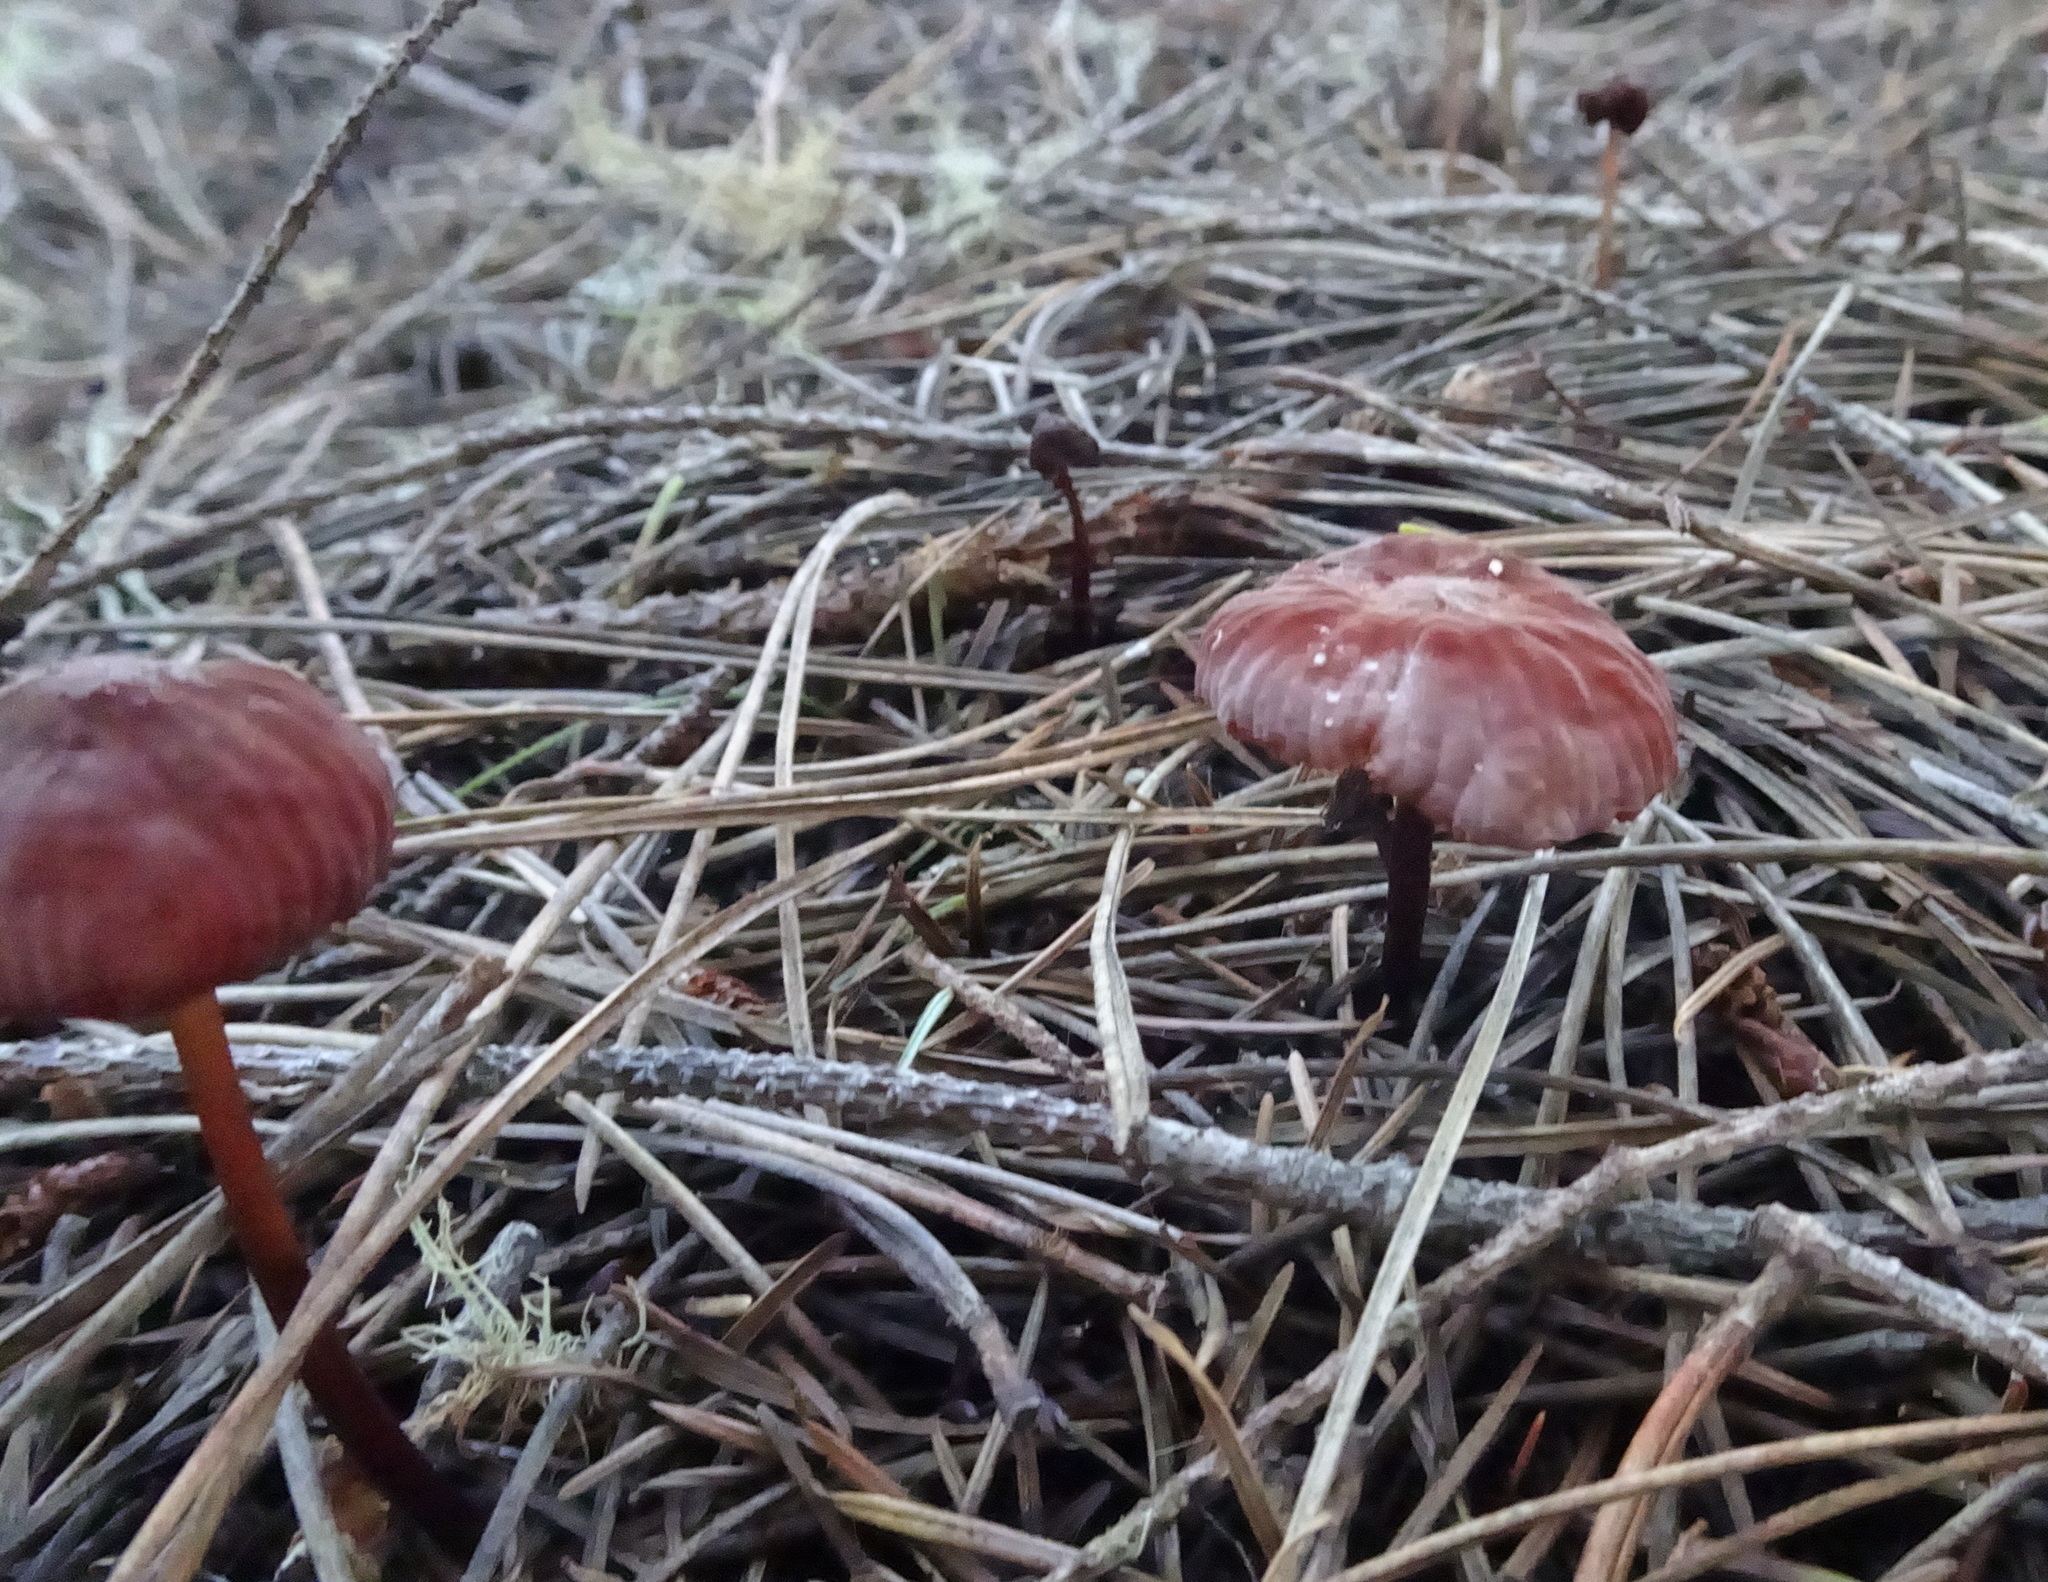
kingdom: Fungi
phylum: Basidiomycota
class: Agaricomycetes
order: Agaricales
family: Marasmiaceae
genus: Marasmius
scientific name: Marasmius plicatulus
